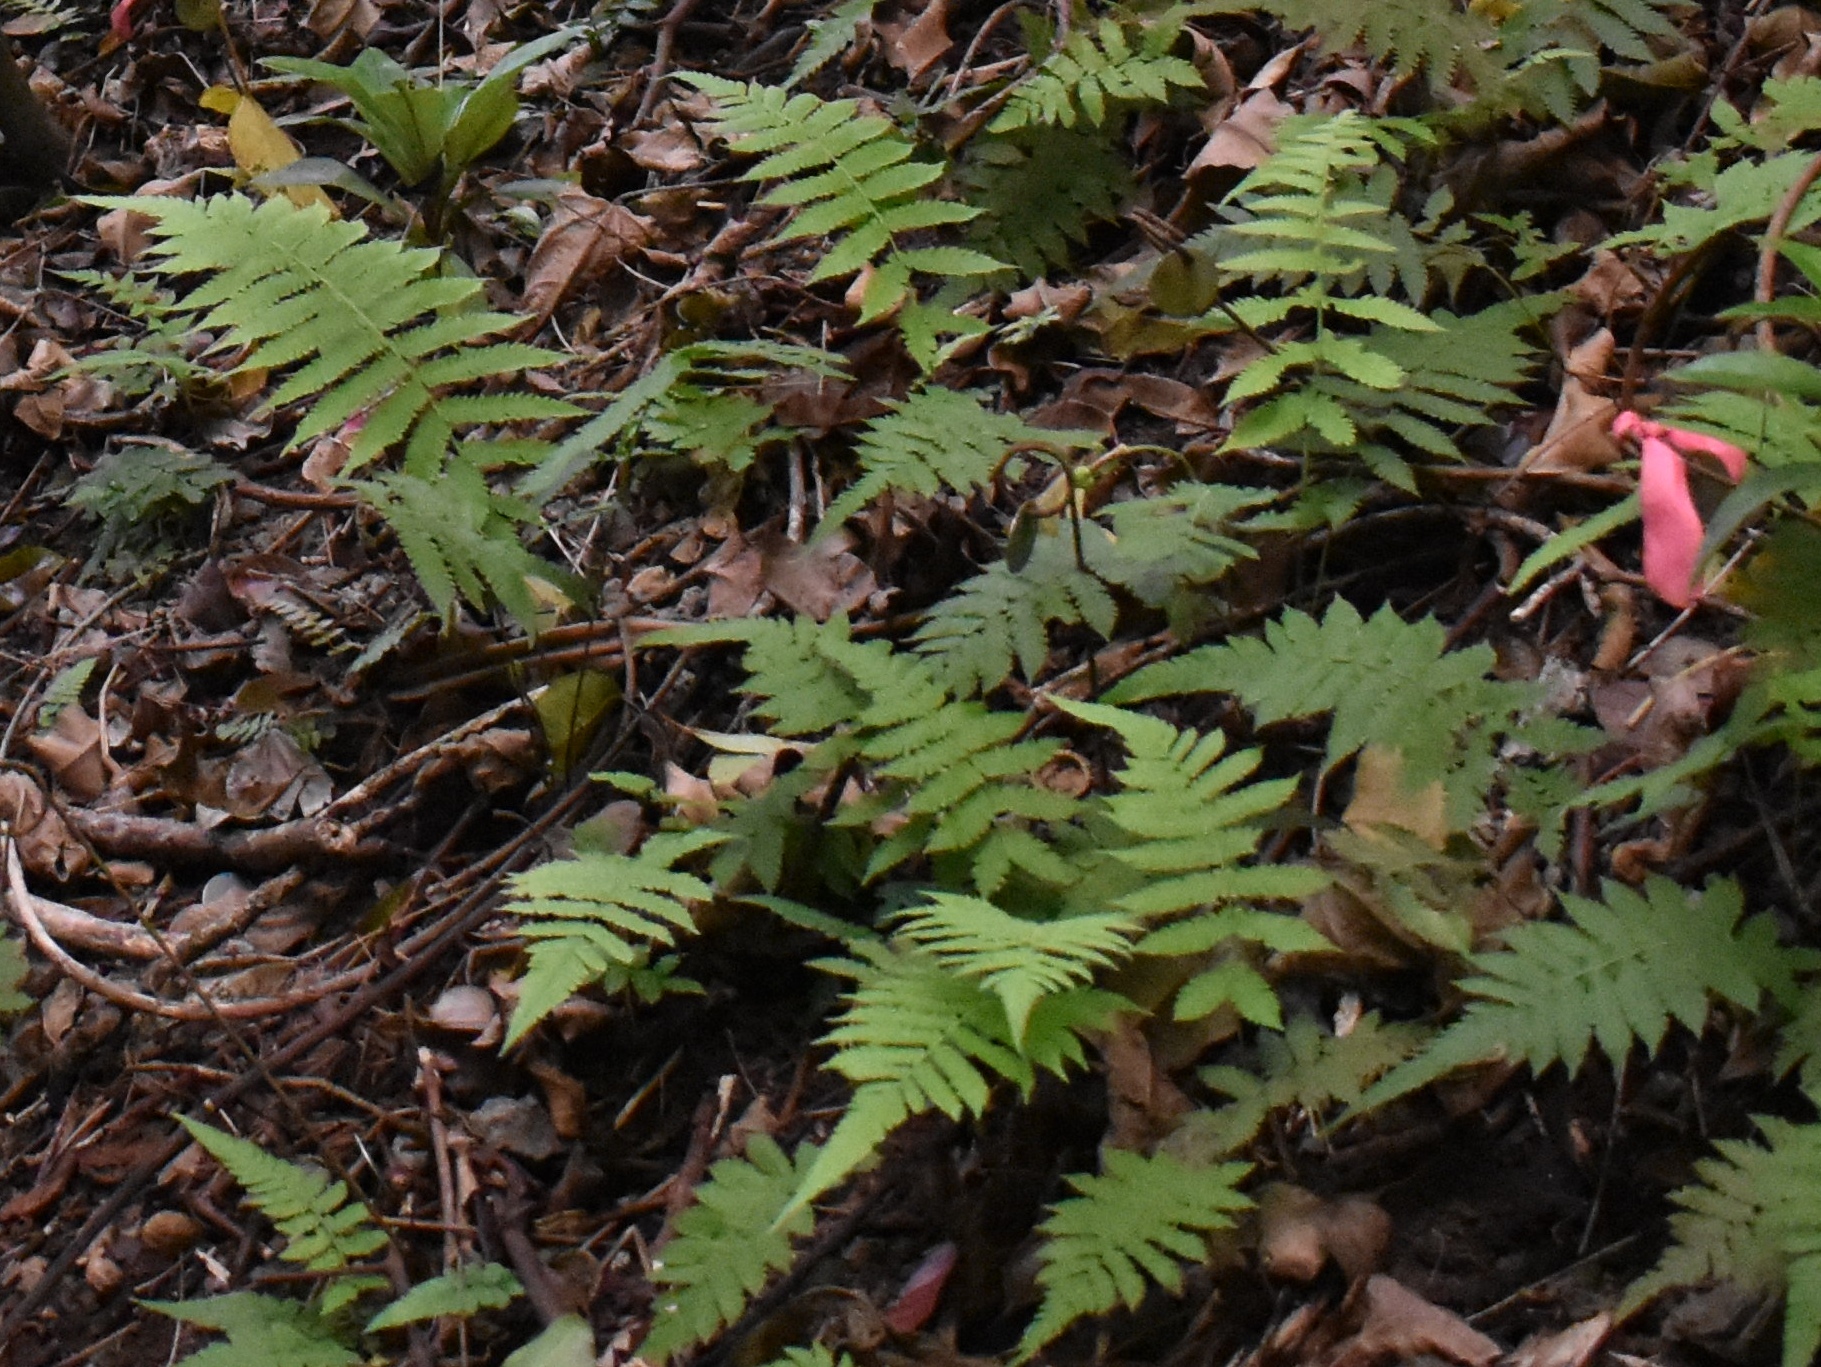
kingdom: Plantae
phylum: Tracheophyta
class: Polypodiopsida
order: Polypodiales
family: Thelypteridaceae
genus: Christella
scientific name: Christella dentata
